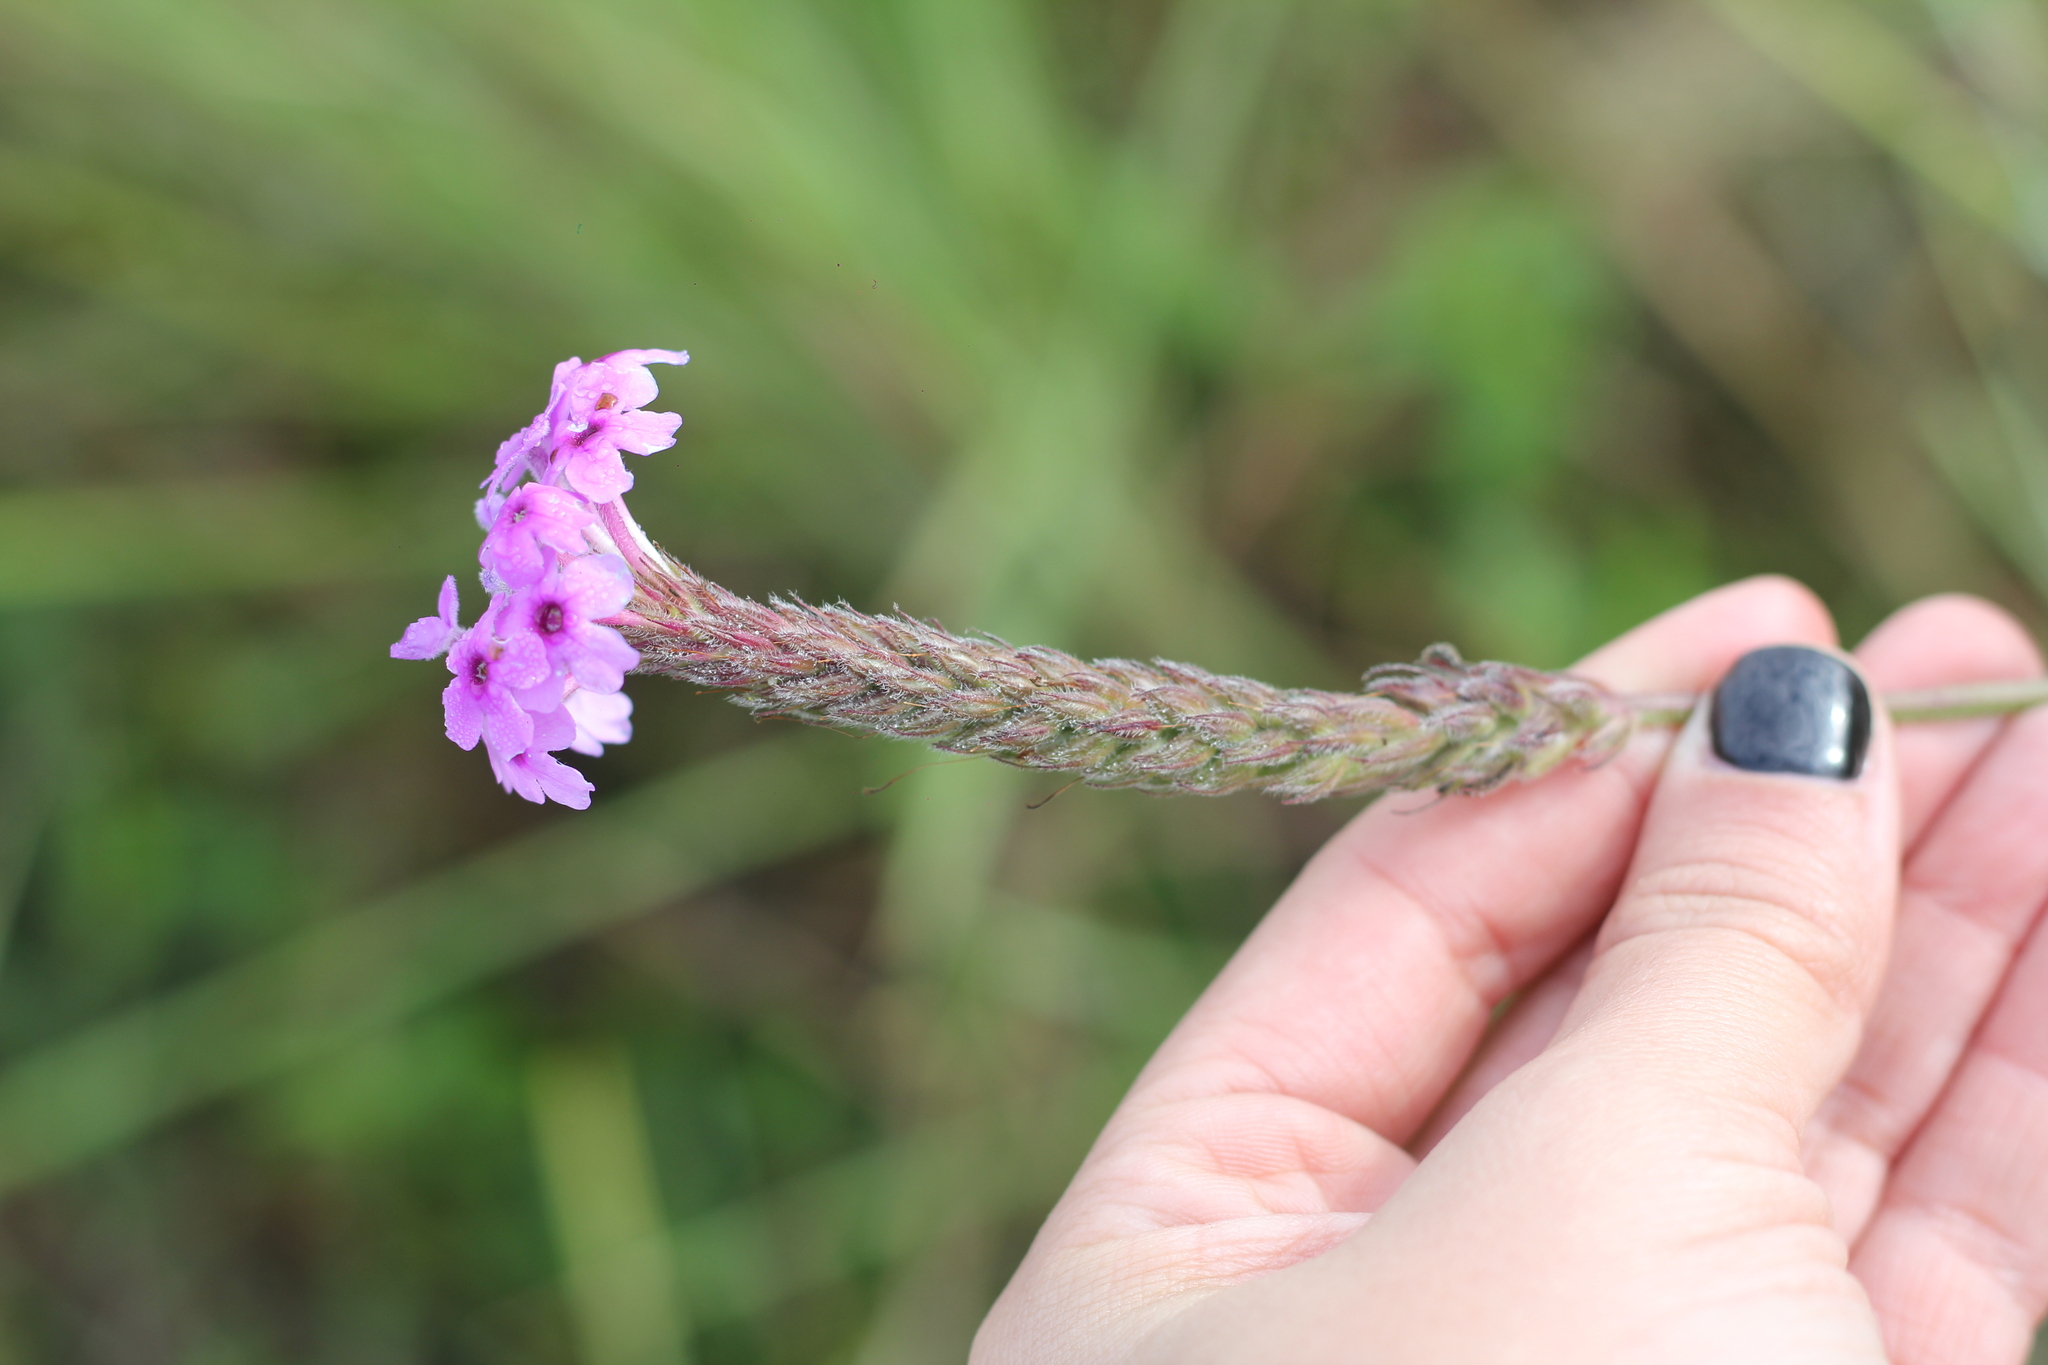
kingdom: Plantae
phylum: Tracheophyta
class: Magnoliopsida
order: Lamiales
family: Verbenaceae
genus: Verbena
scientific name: Verbena intermedia
